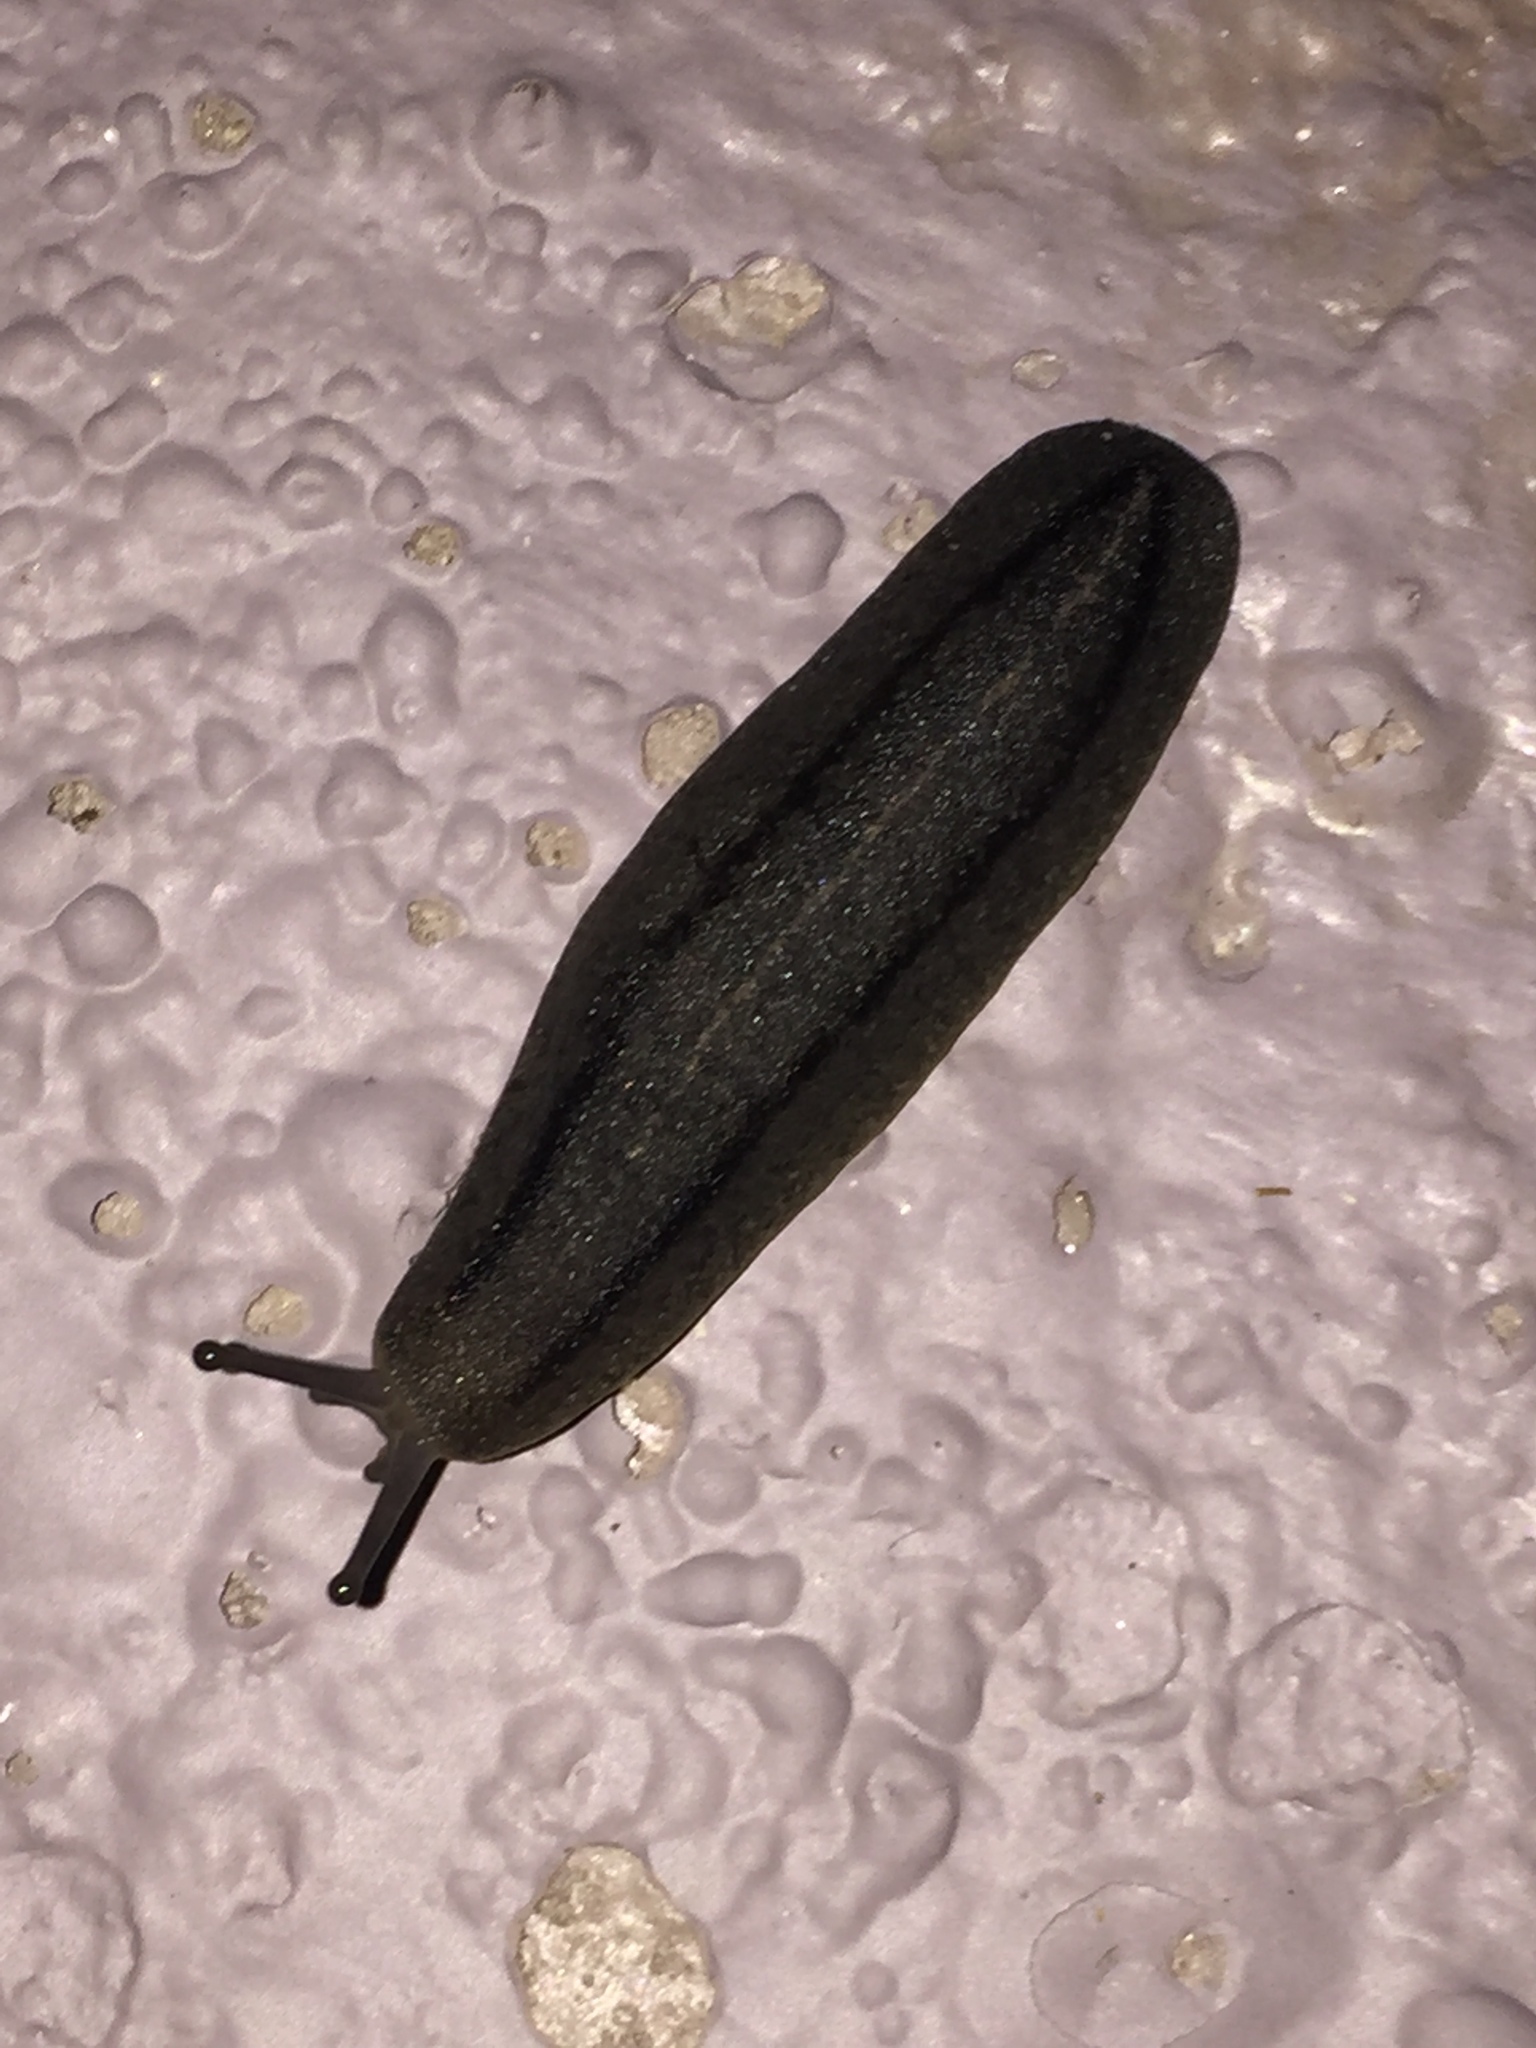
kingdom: Animalia
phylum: Mollusca
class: Gastropoda
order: Systellommatophora
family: Veronicellidae
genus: Leidyula
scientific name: Leidyula floridana
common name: Florida leatherleaf
